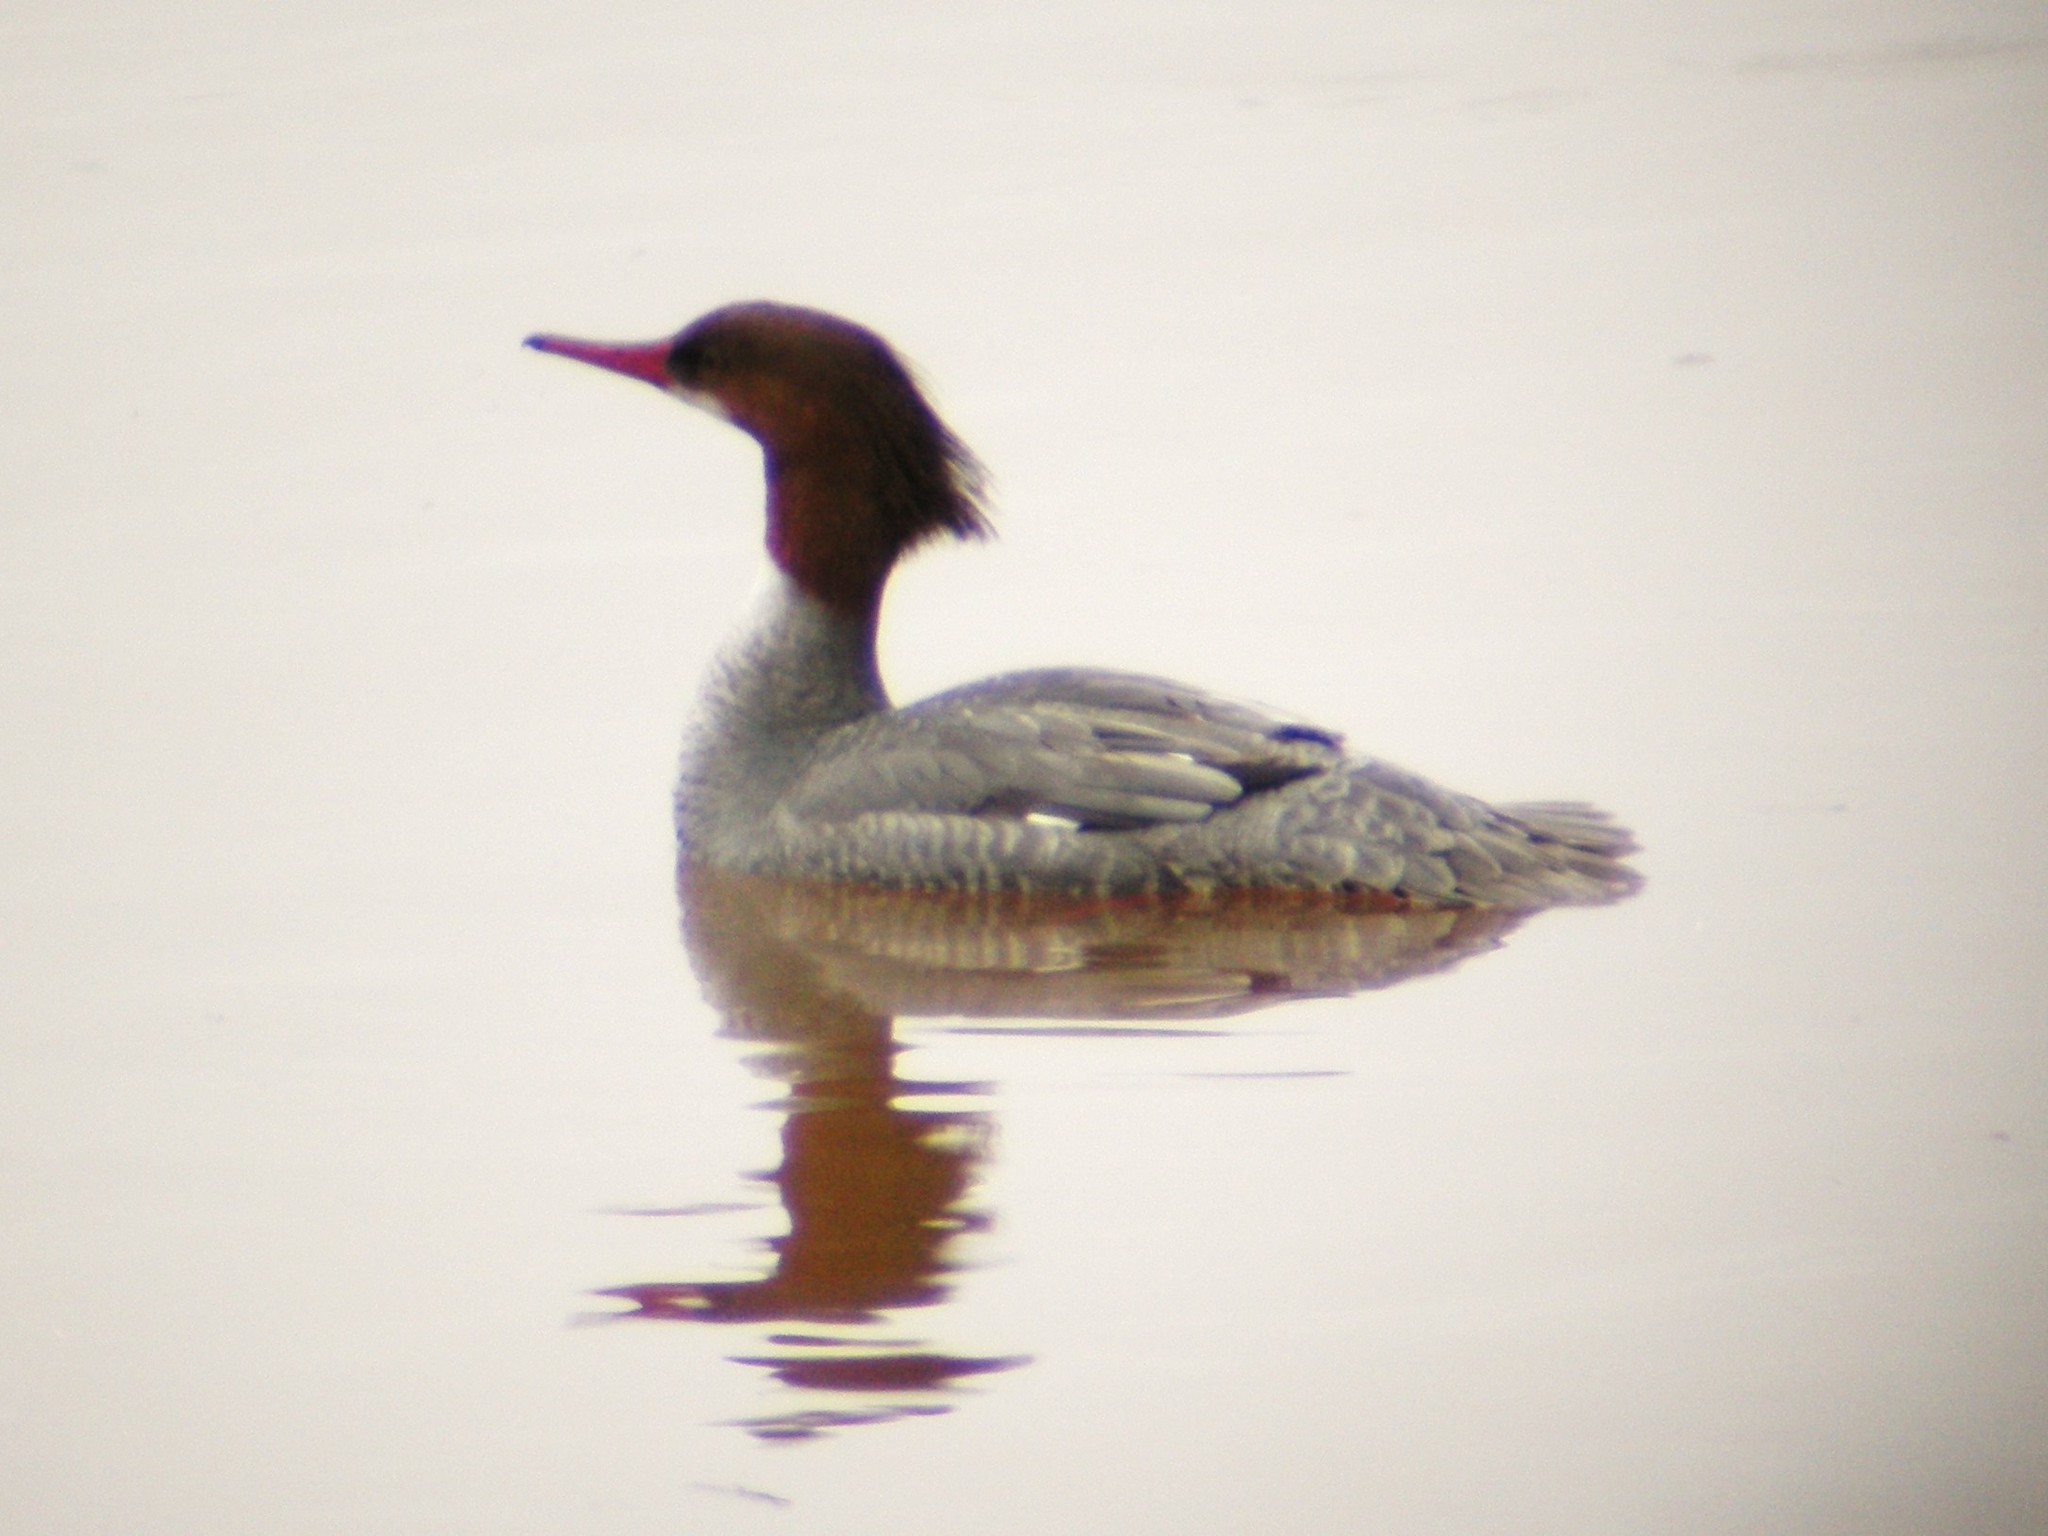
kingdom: Animalia
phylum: Chordata
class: Aves
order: Anseriformes
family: Anatidae
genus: Mergus
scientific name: Mergus merganser
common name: Common merganser
